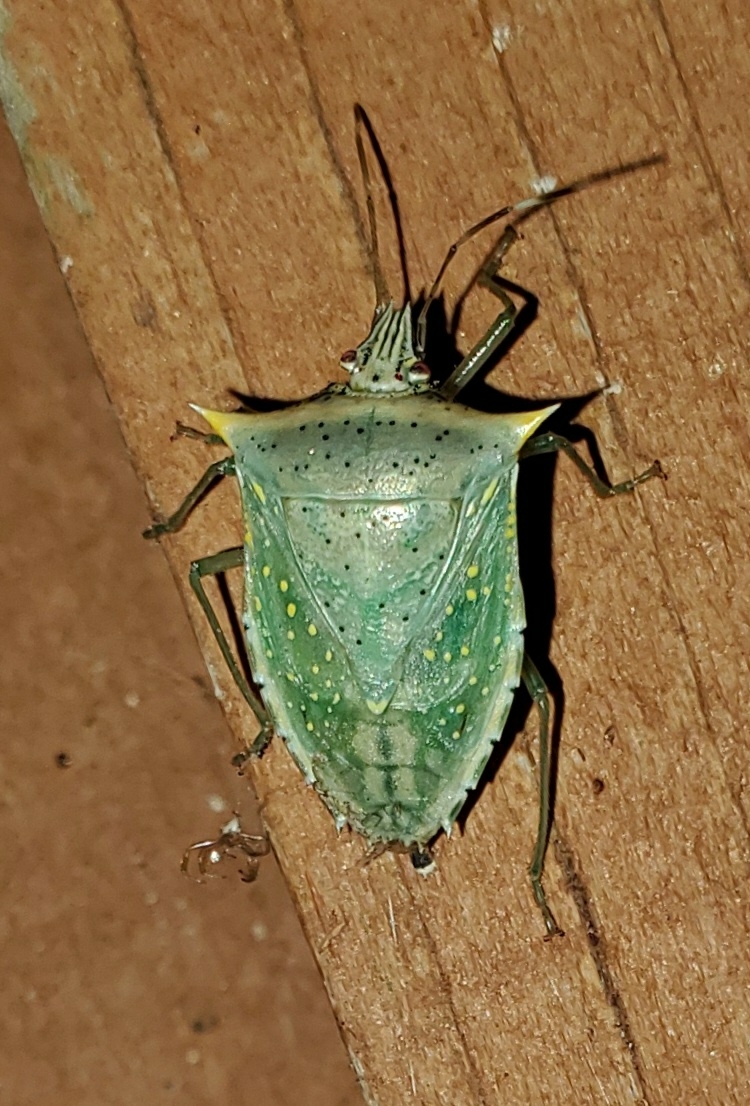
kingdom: Animalia
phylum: Arthropoda
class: Insecta
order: Hemiptera
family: Pentatomidae
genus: Arvelius
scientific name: Arvelius albopunctatus
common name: Tomato stink bug
